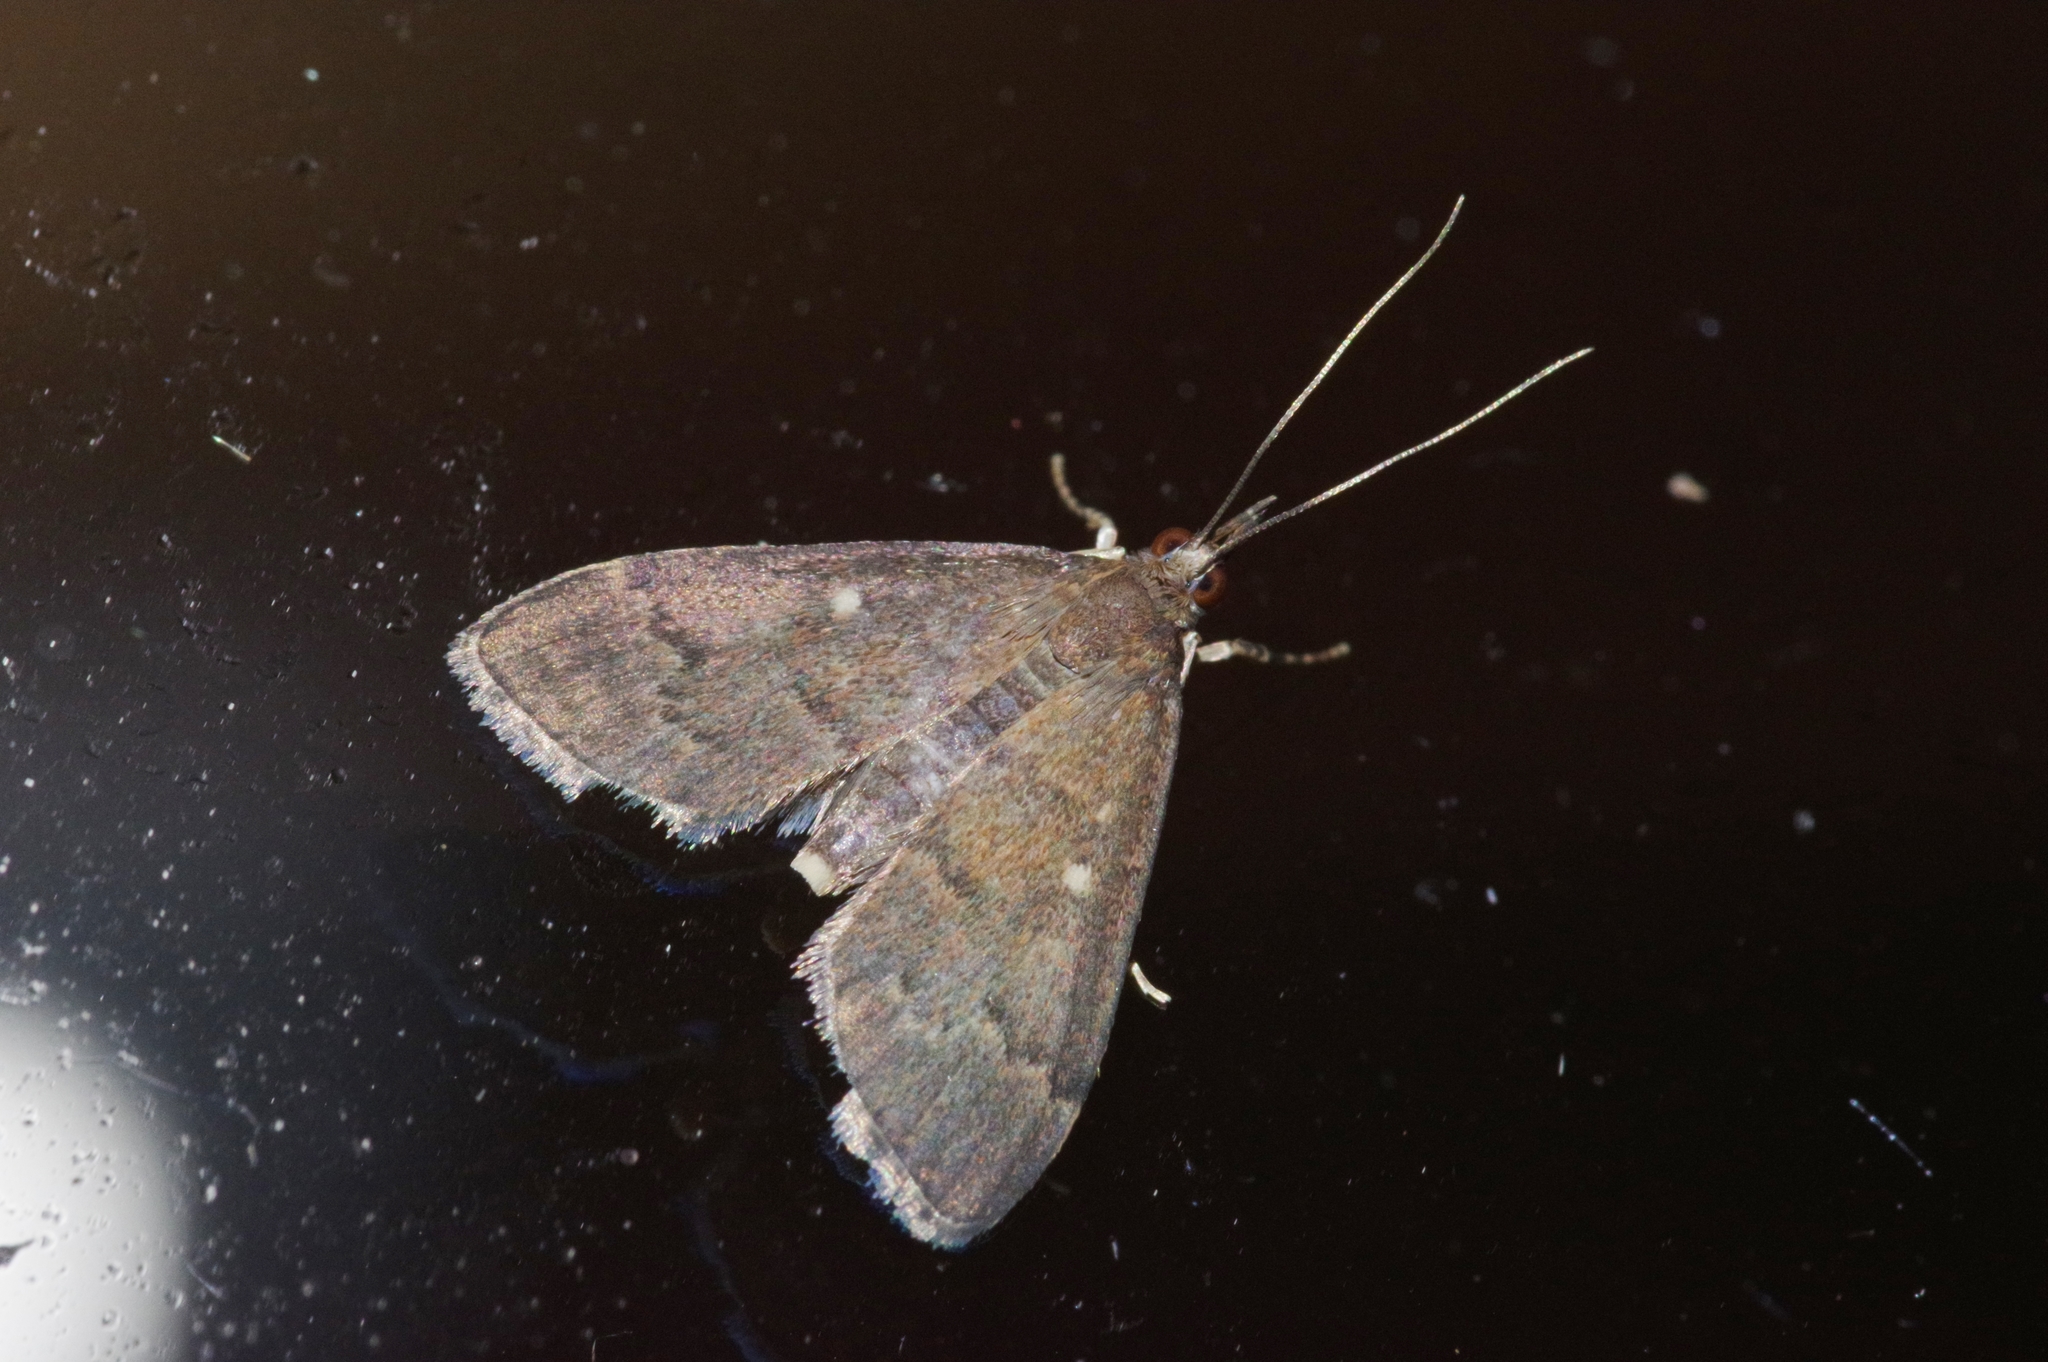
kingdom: Animalia
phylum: Arthropoda
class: Insecta
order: Lepidoptera
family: Crambidae
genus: Camptomastix
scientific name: Camptomastix hisbonalis
